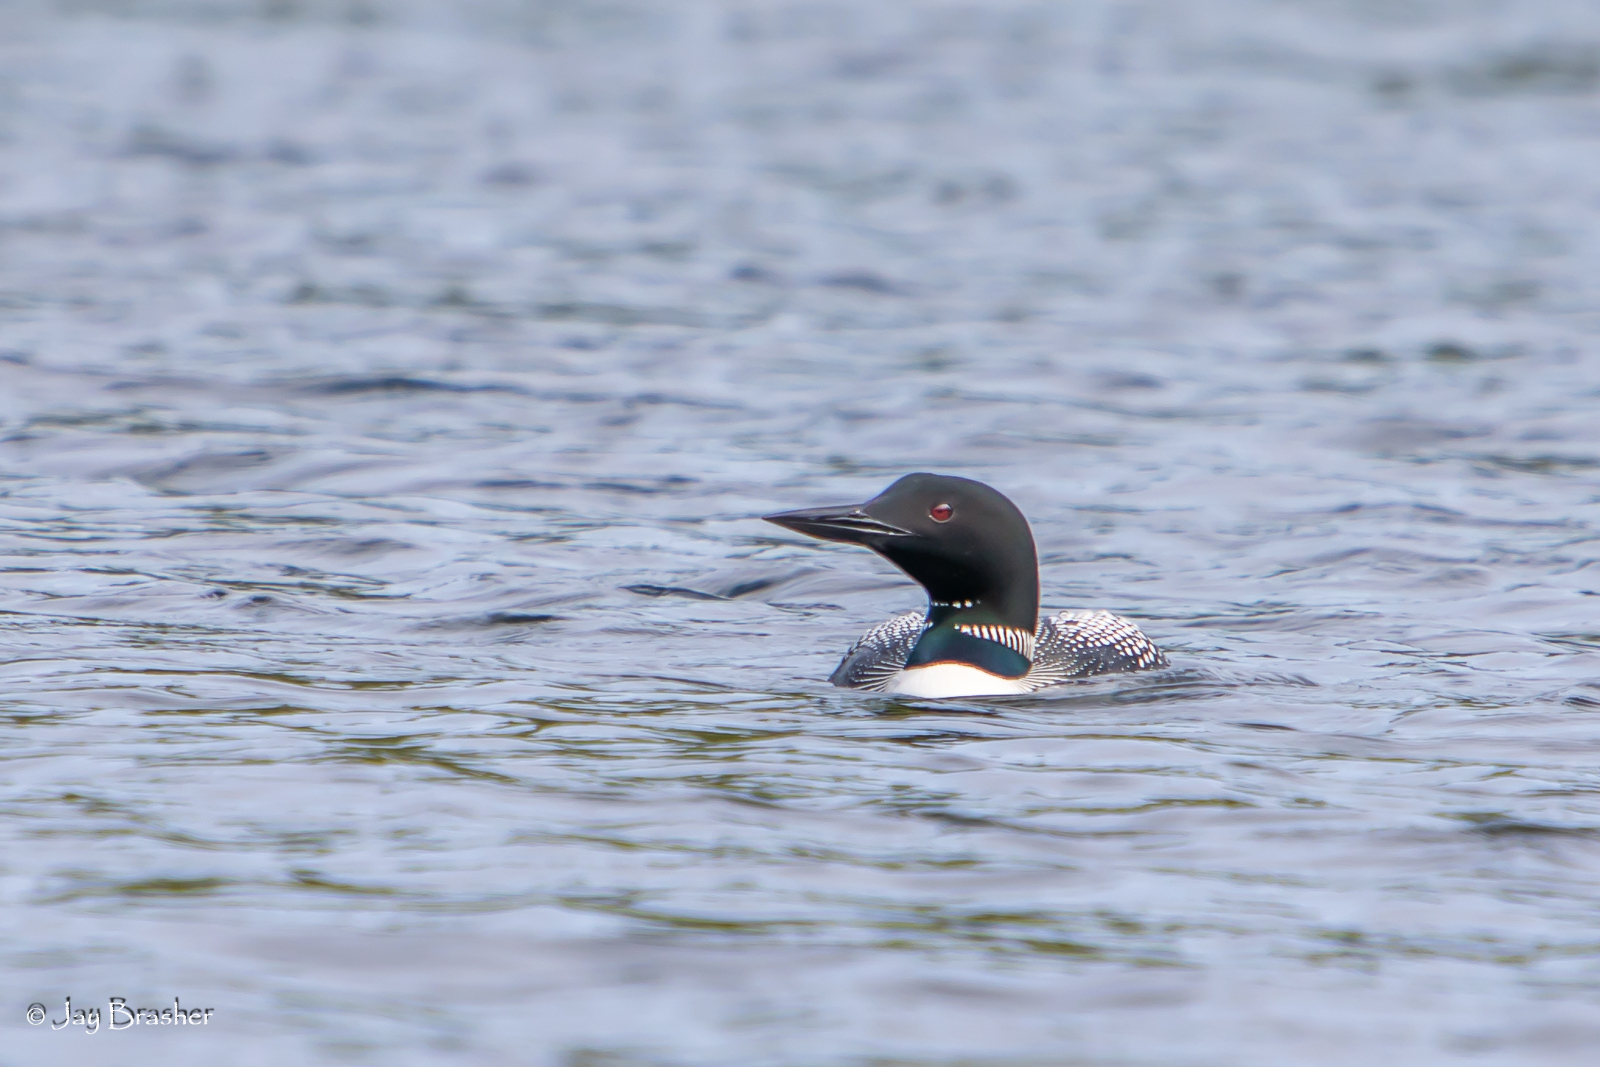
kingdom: Animalia
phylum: Chordata
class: Aves
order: Gaviiformes
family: Gaviidae
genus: Gavia
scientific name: Gavia immer
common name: Common loon
